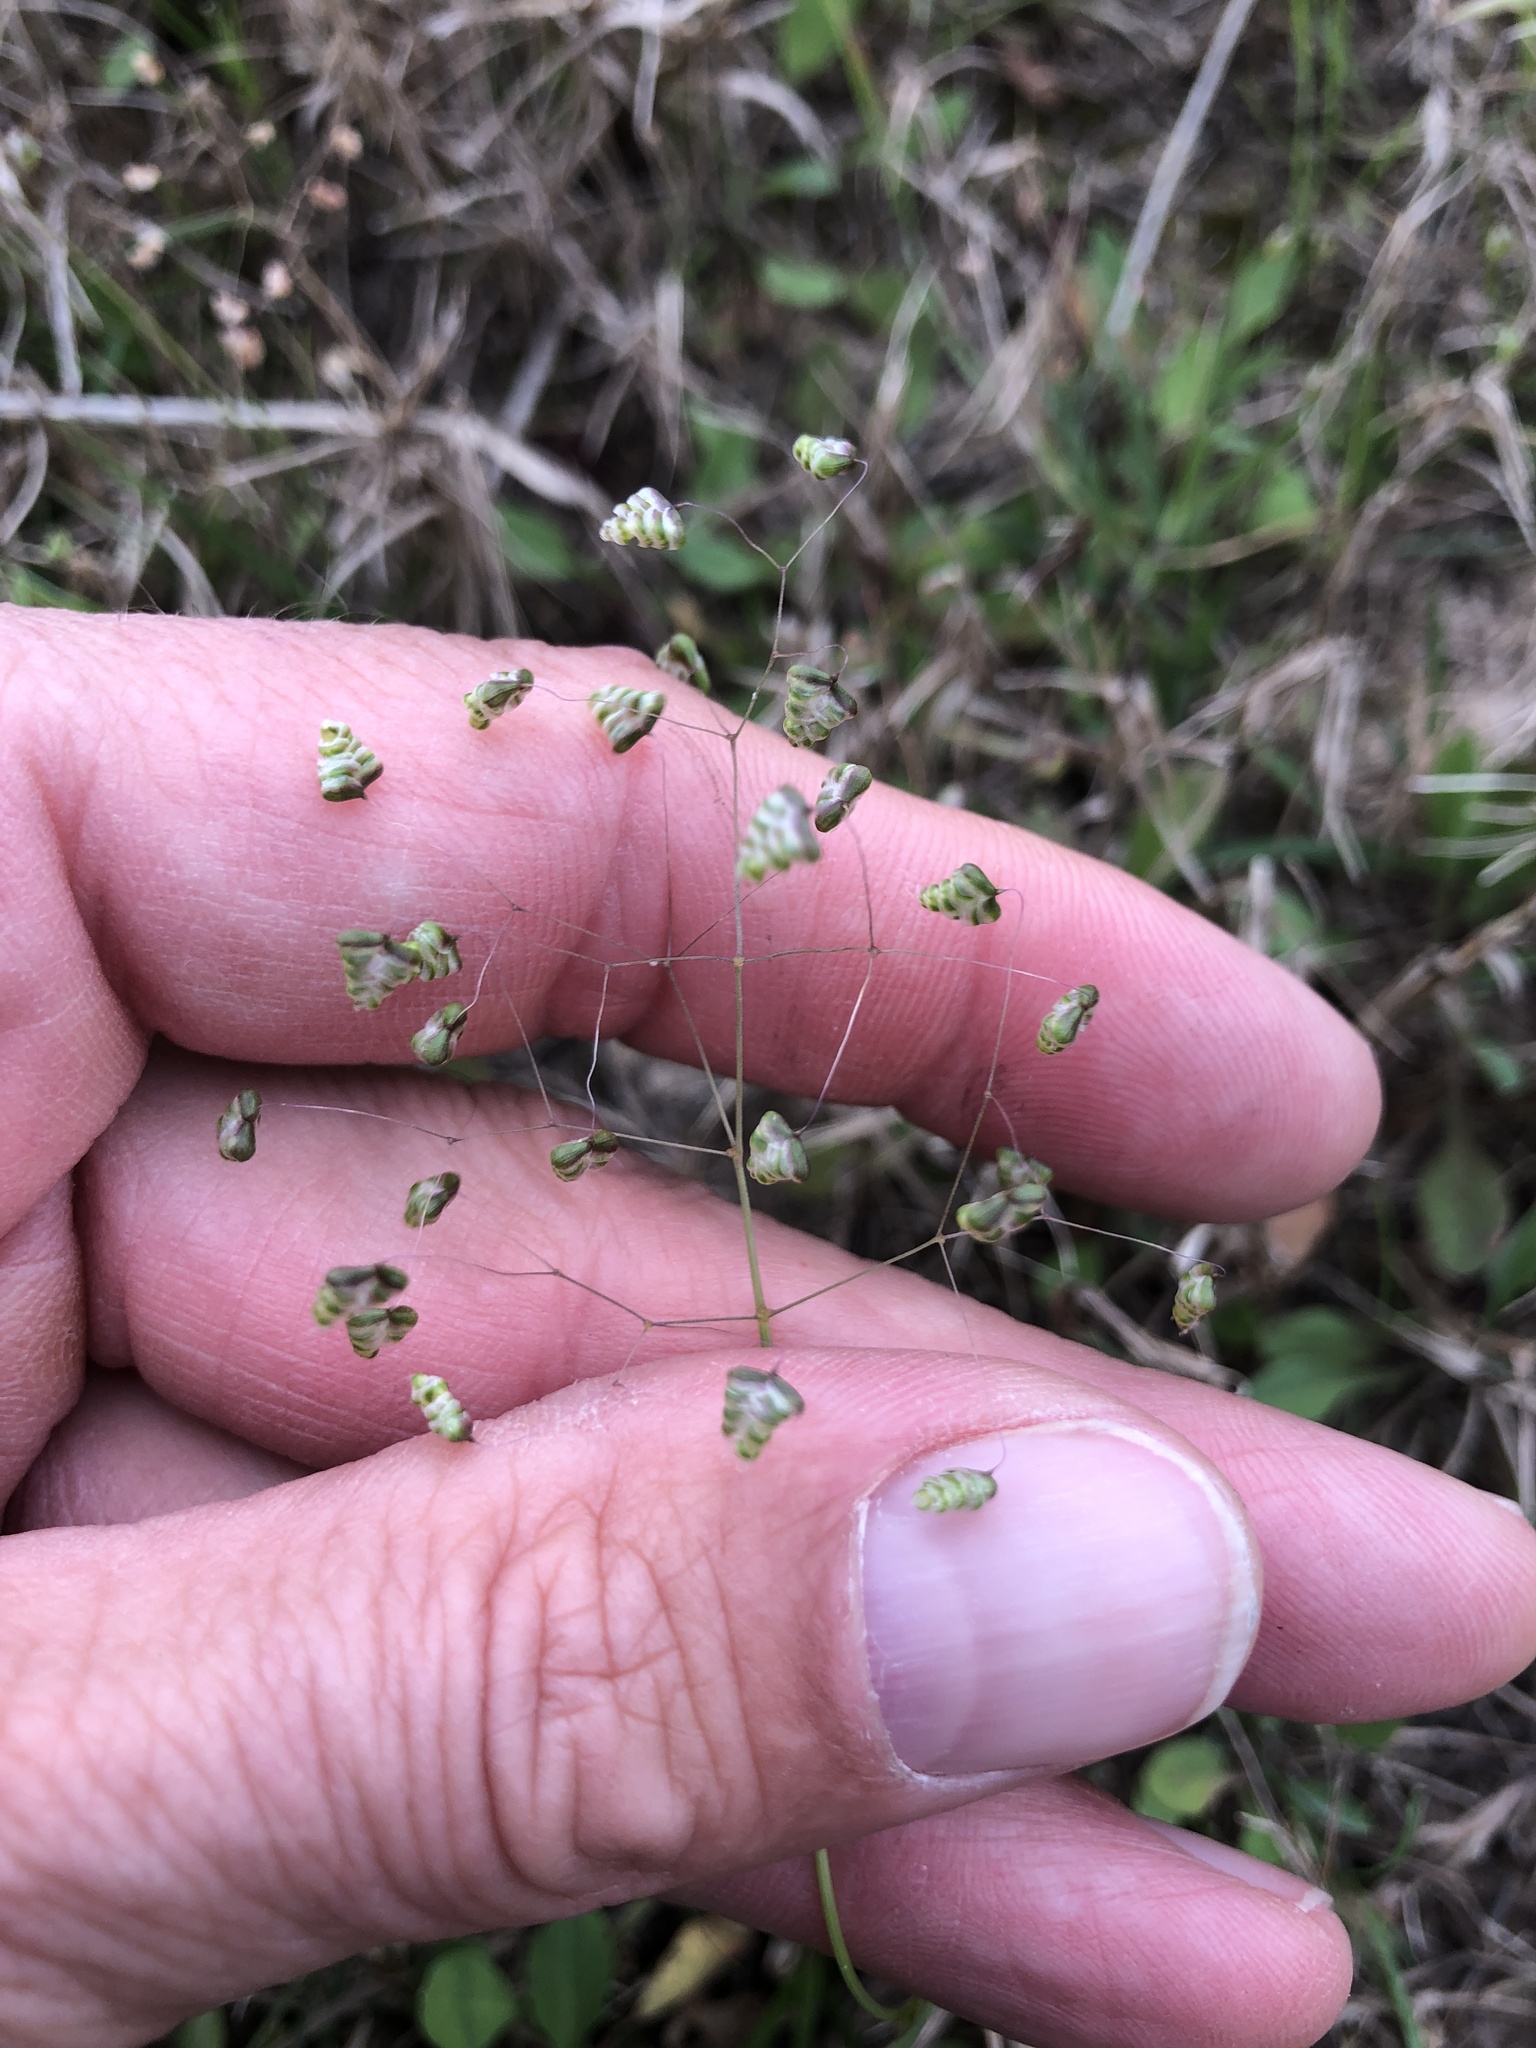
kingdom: Plantae
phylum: Tracheophyta
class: Liliopsida
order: Poales
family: Poaceae
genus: Briza
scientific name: Briza minor
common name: Lesser quaking-grass
